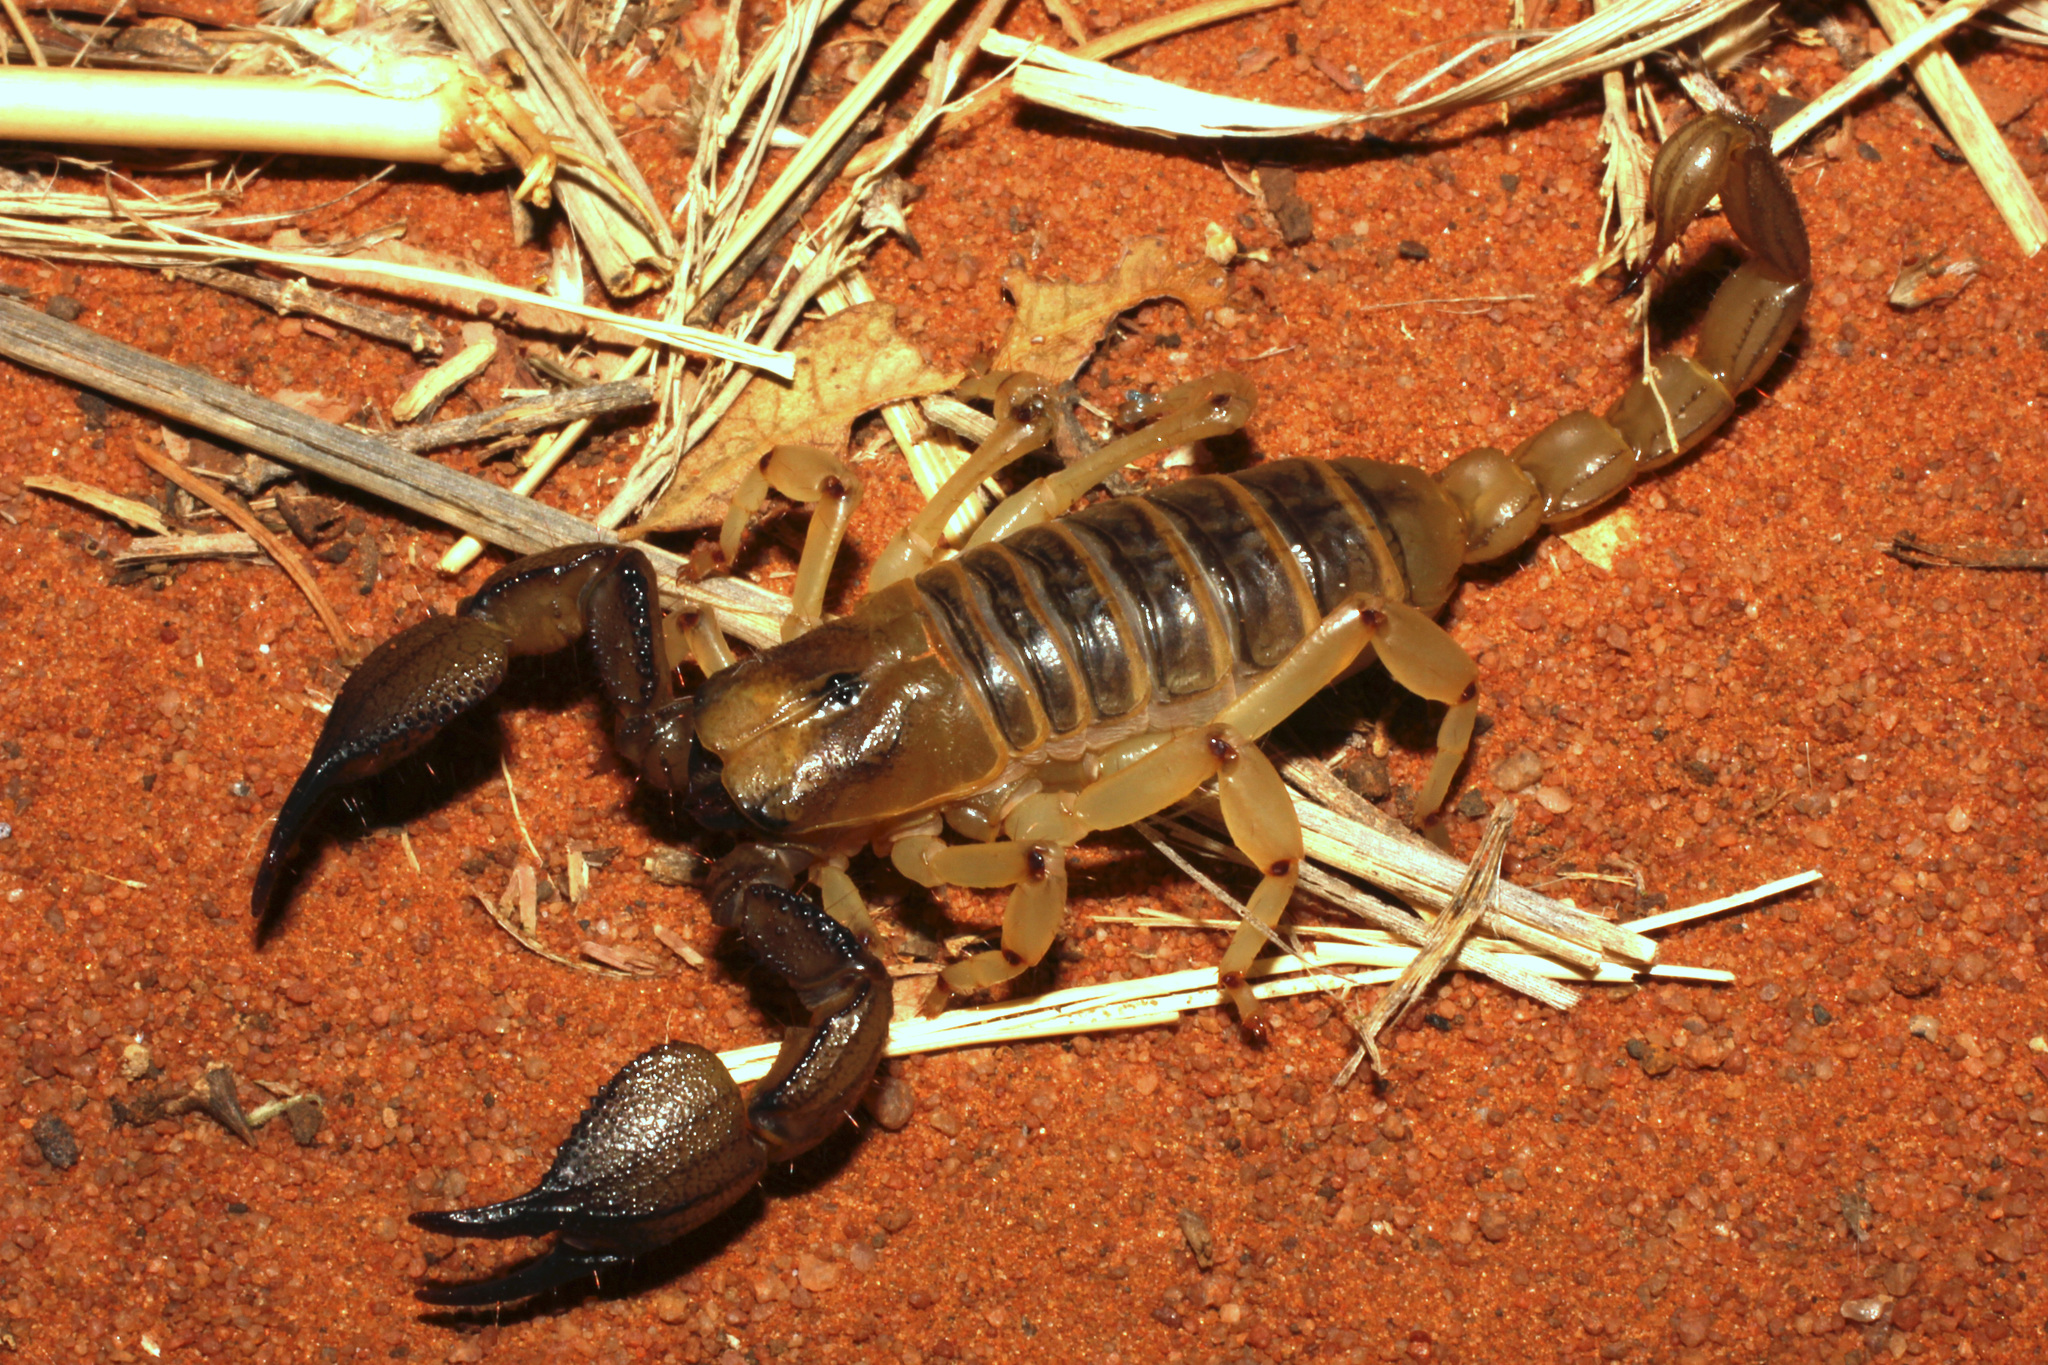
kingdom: Animalia
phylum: Arthropoda
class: Arachnida
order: Scorpiones
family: Scorpionidae
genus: Opistophthalmus
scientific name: Opistophthalmus fitzsimonsi
